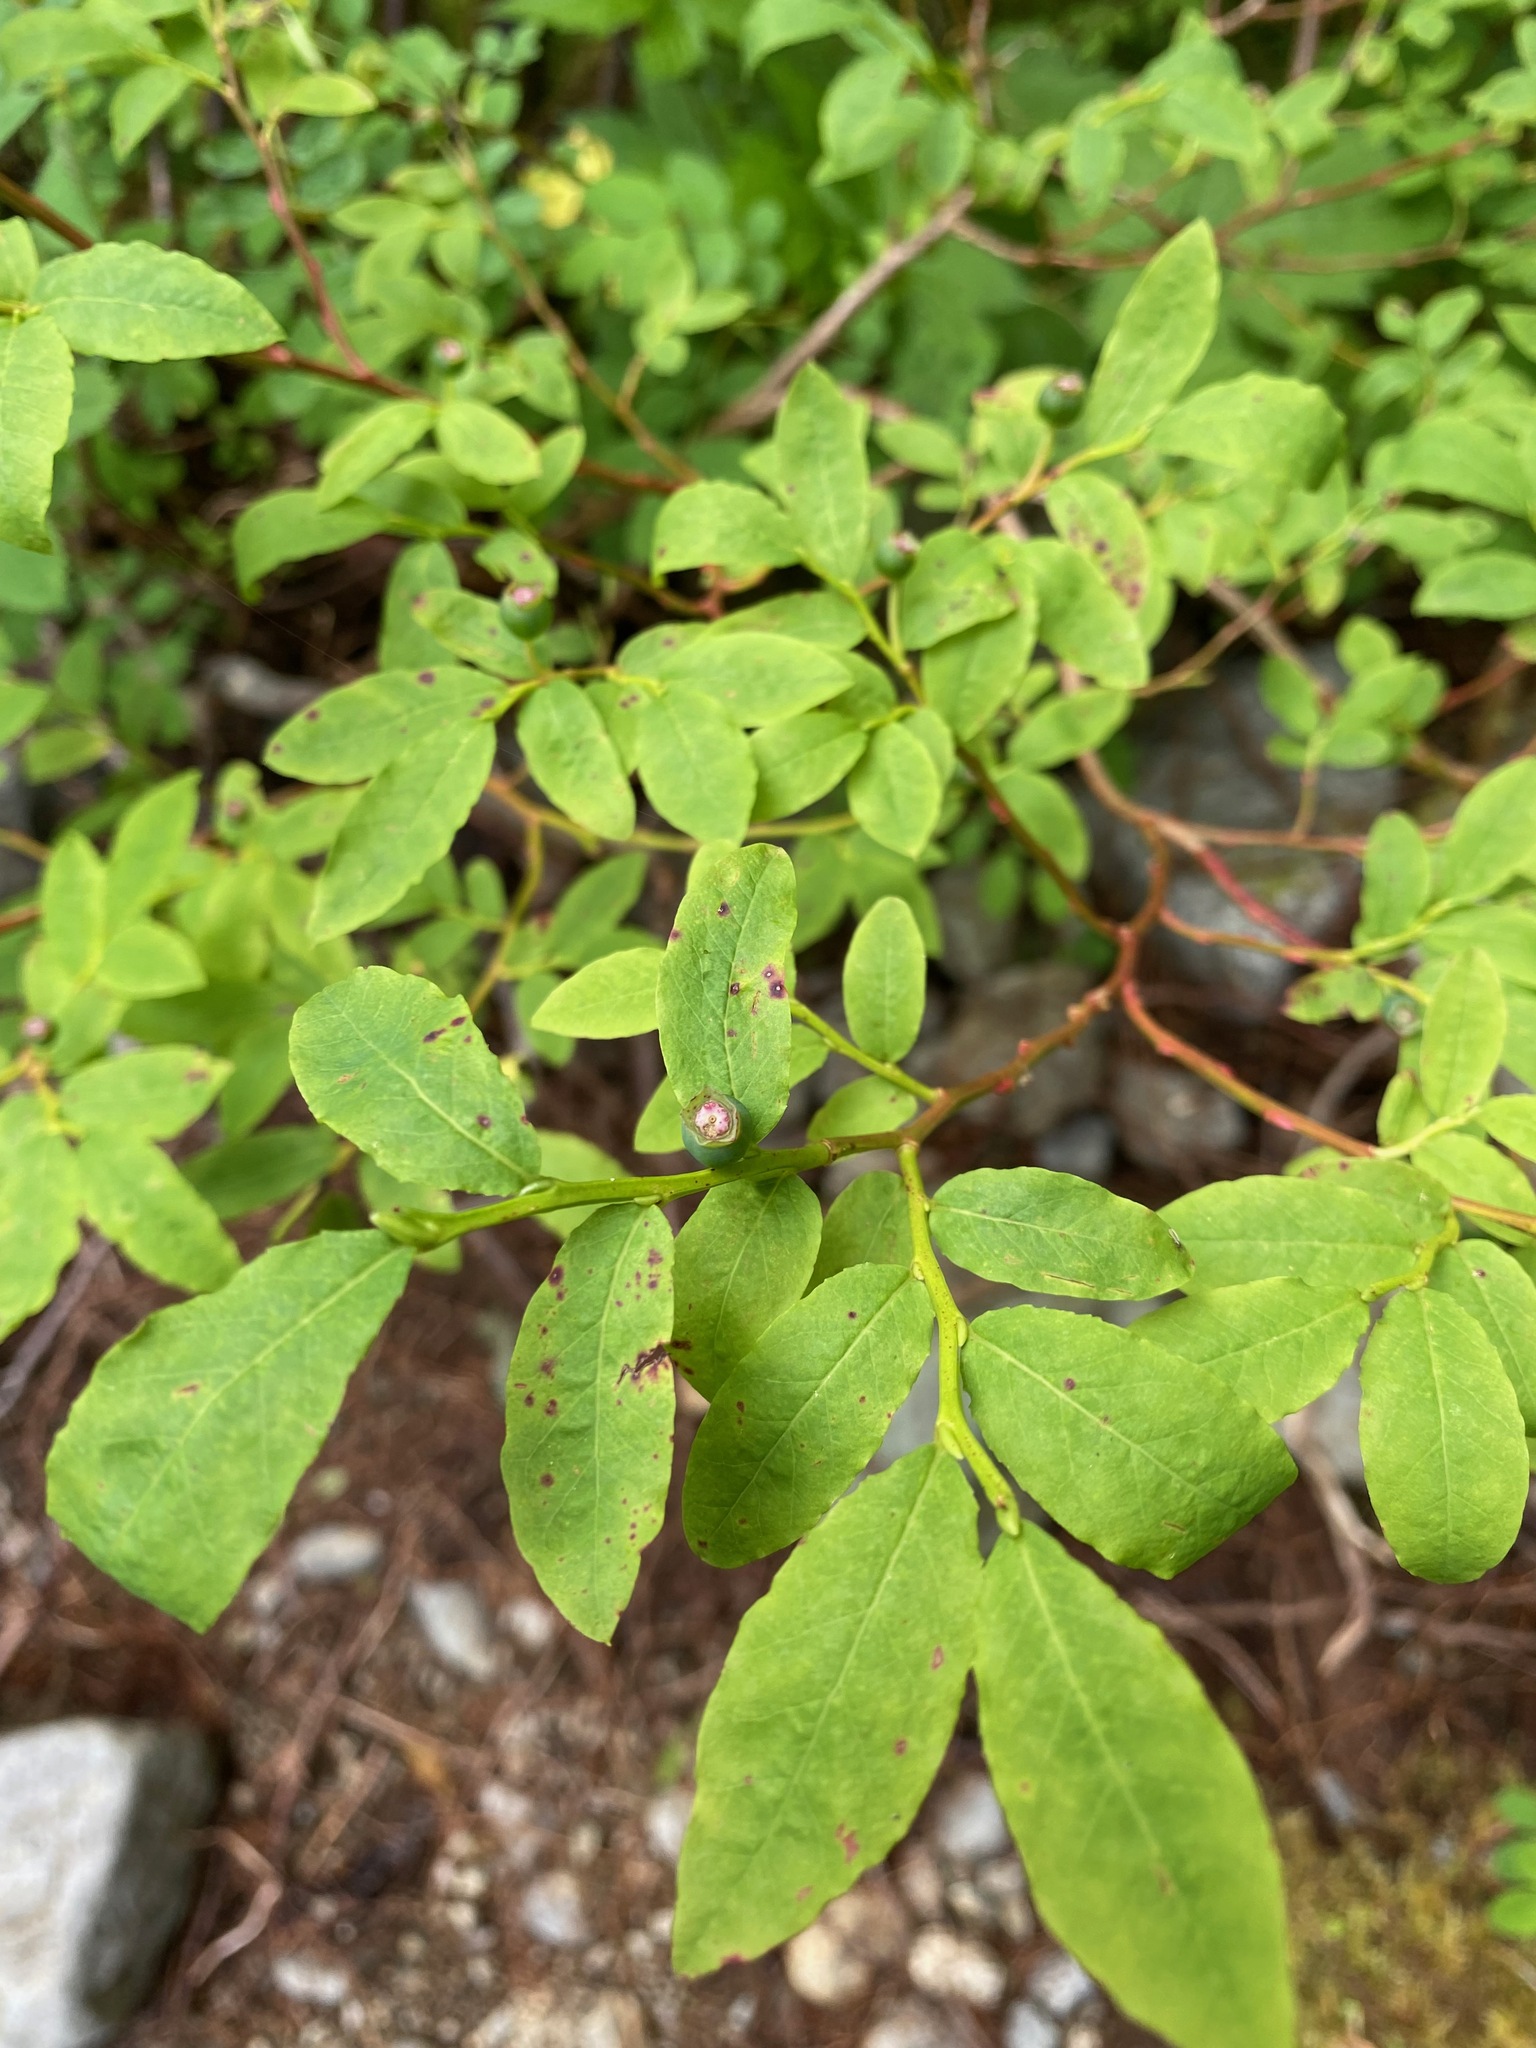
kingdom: Plantae
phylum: Tracheophyta
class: Magnoliopsida
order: Ericales
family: Ericaceae
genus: Vaccinium
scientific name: Vaccinium ovalifolium
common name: Early blueberry
